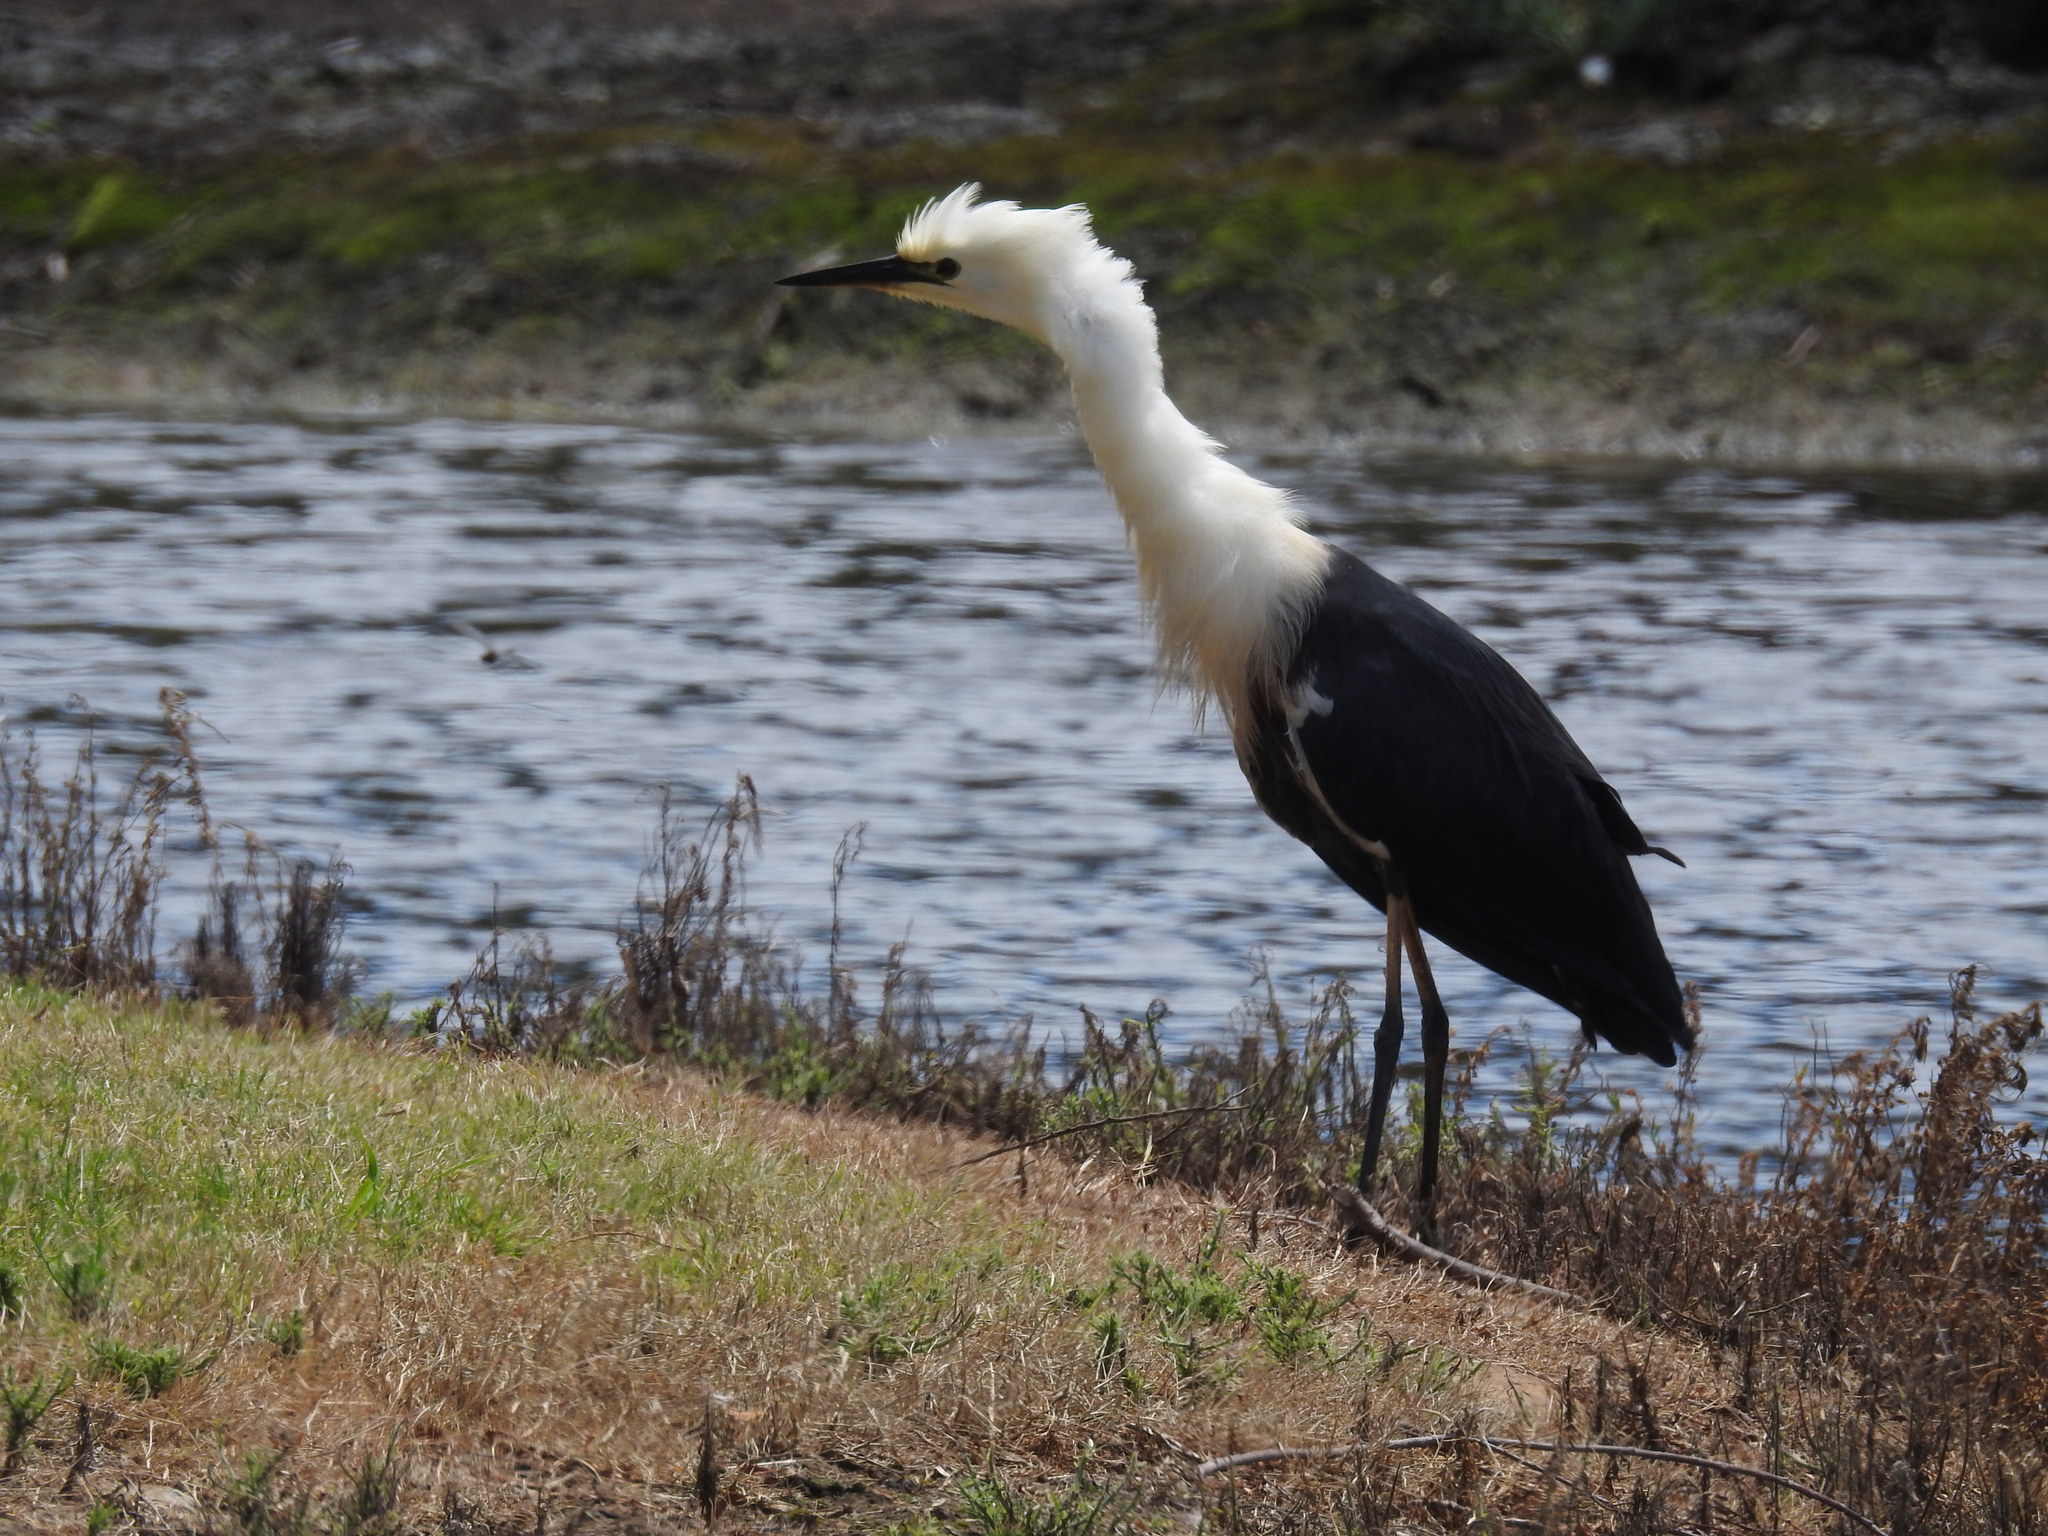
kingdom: Animalia
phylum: Chordata
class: Aves
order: Pelecaniformes
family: Ardeidae
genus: Ardea
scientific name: Ardea pacifica
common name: White-necked heron
